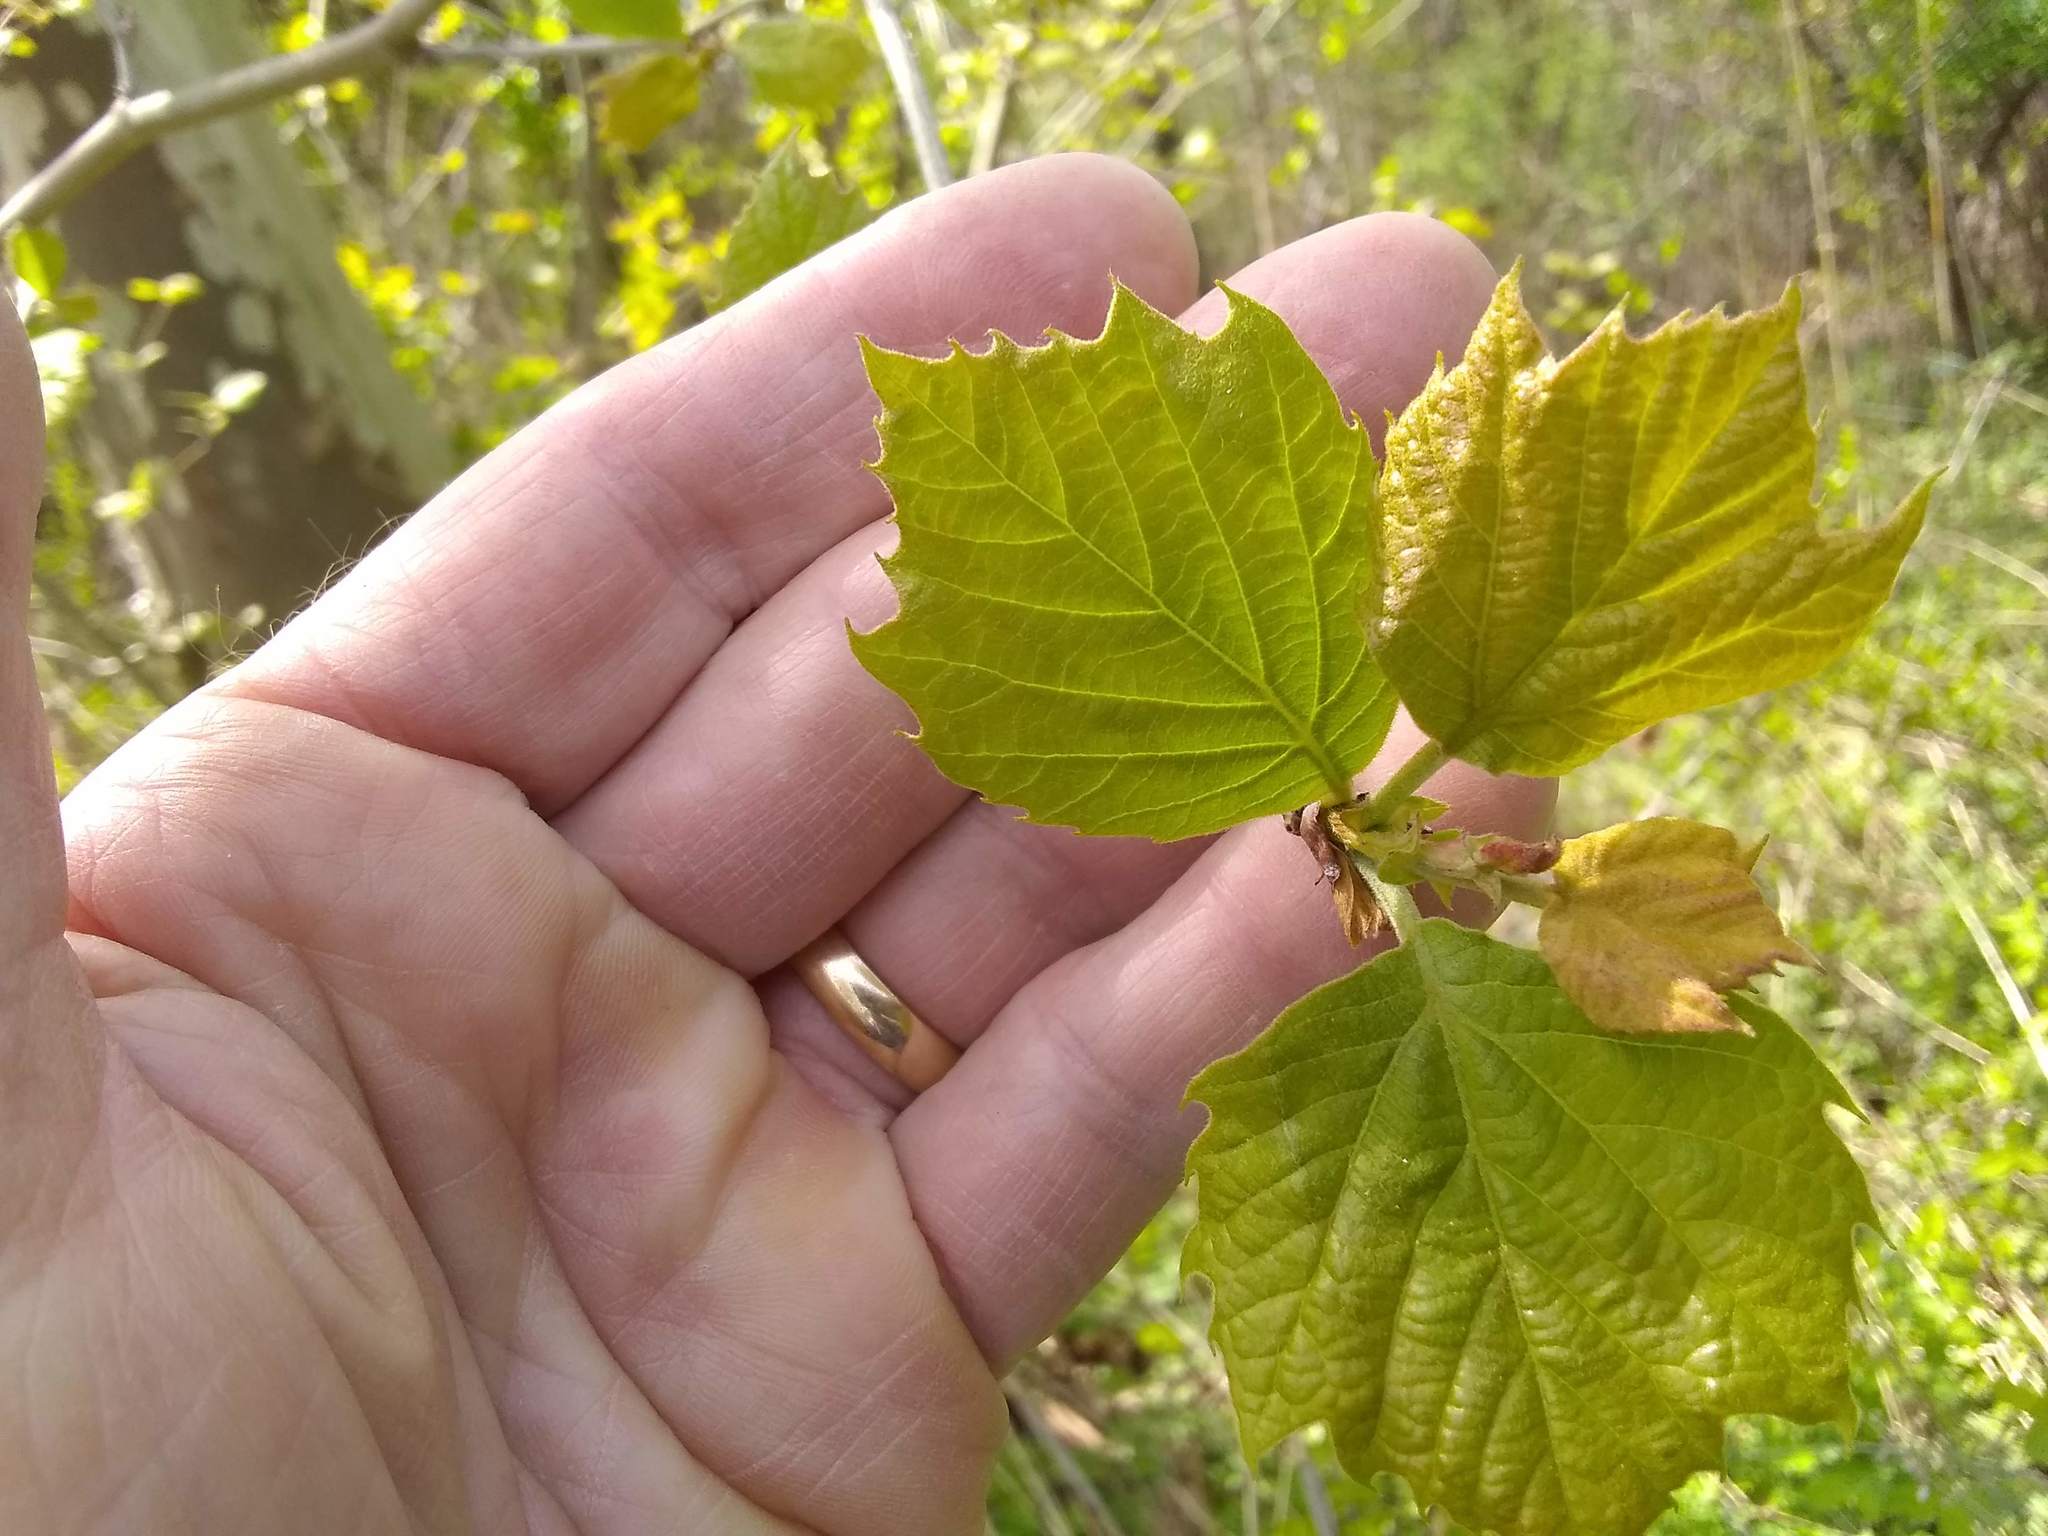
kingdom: Plantae
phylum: Tracheophyta
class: Magnoliopsida
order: Vitales
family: Vitaceae
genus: Ampelopsis
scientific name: Ampelopsis glandulosa
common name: Amur peppervine
